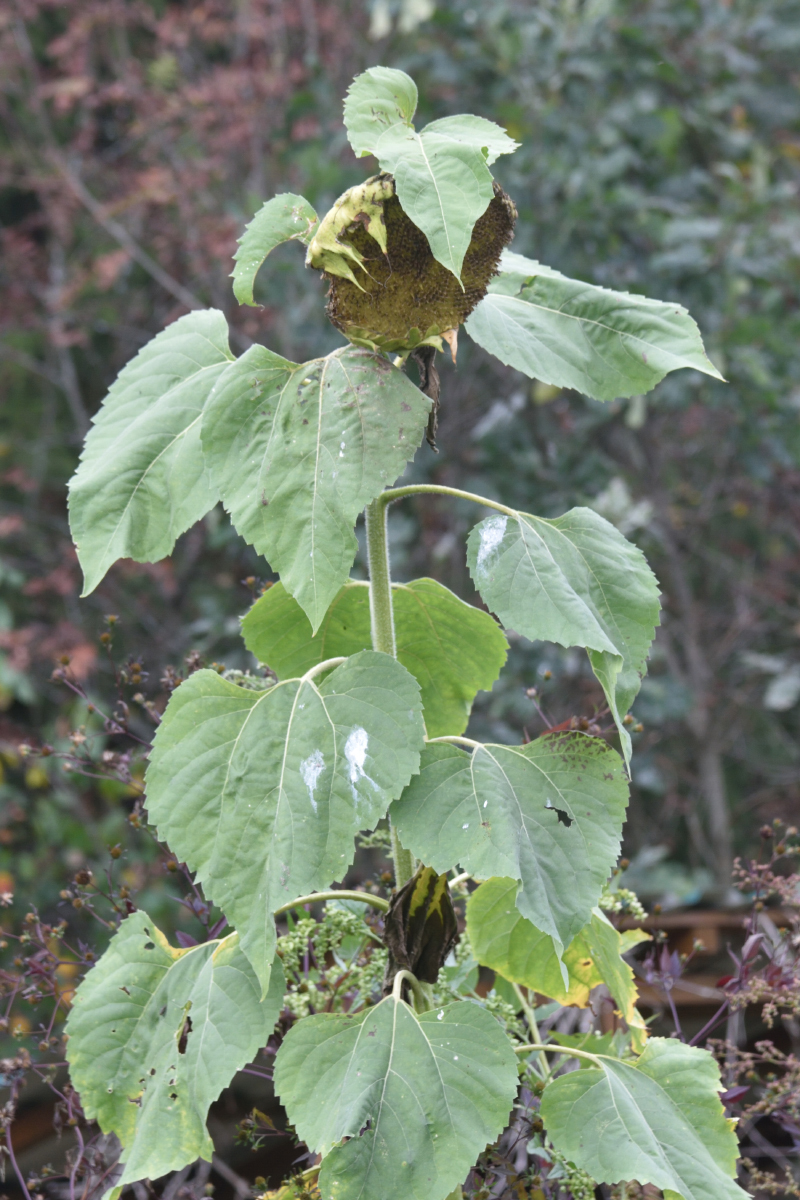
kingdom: Plantae
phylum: Tracheophyta
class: Magnoliopsida
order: Asterales
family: Asteraceae
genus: Helianthus
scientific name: Helianthus annuus
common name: Sunflower
